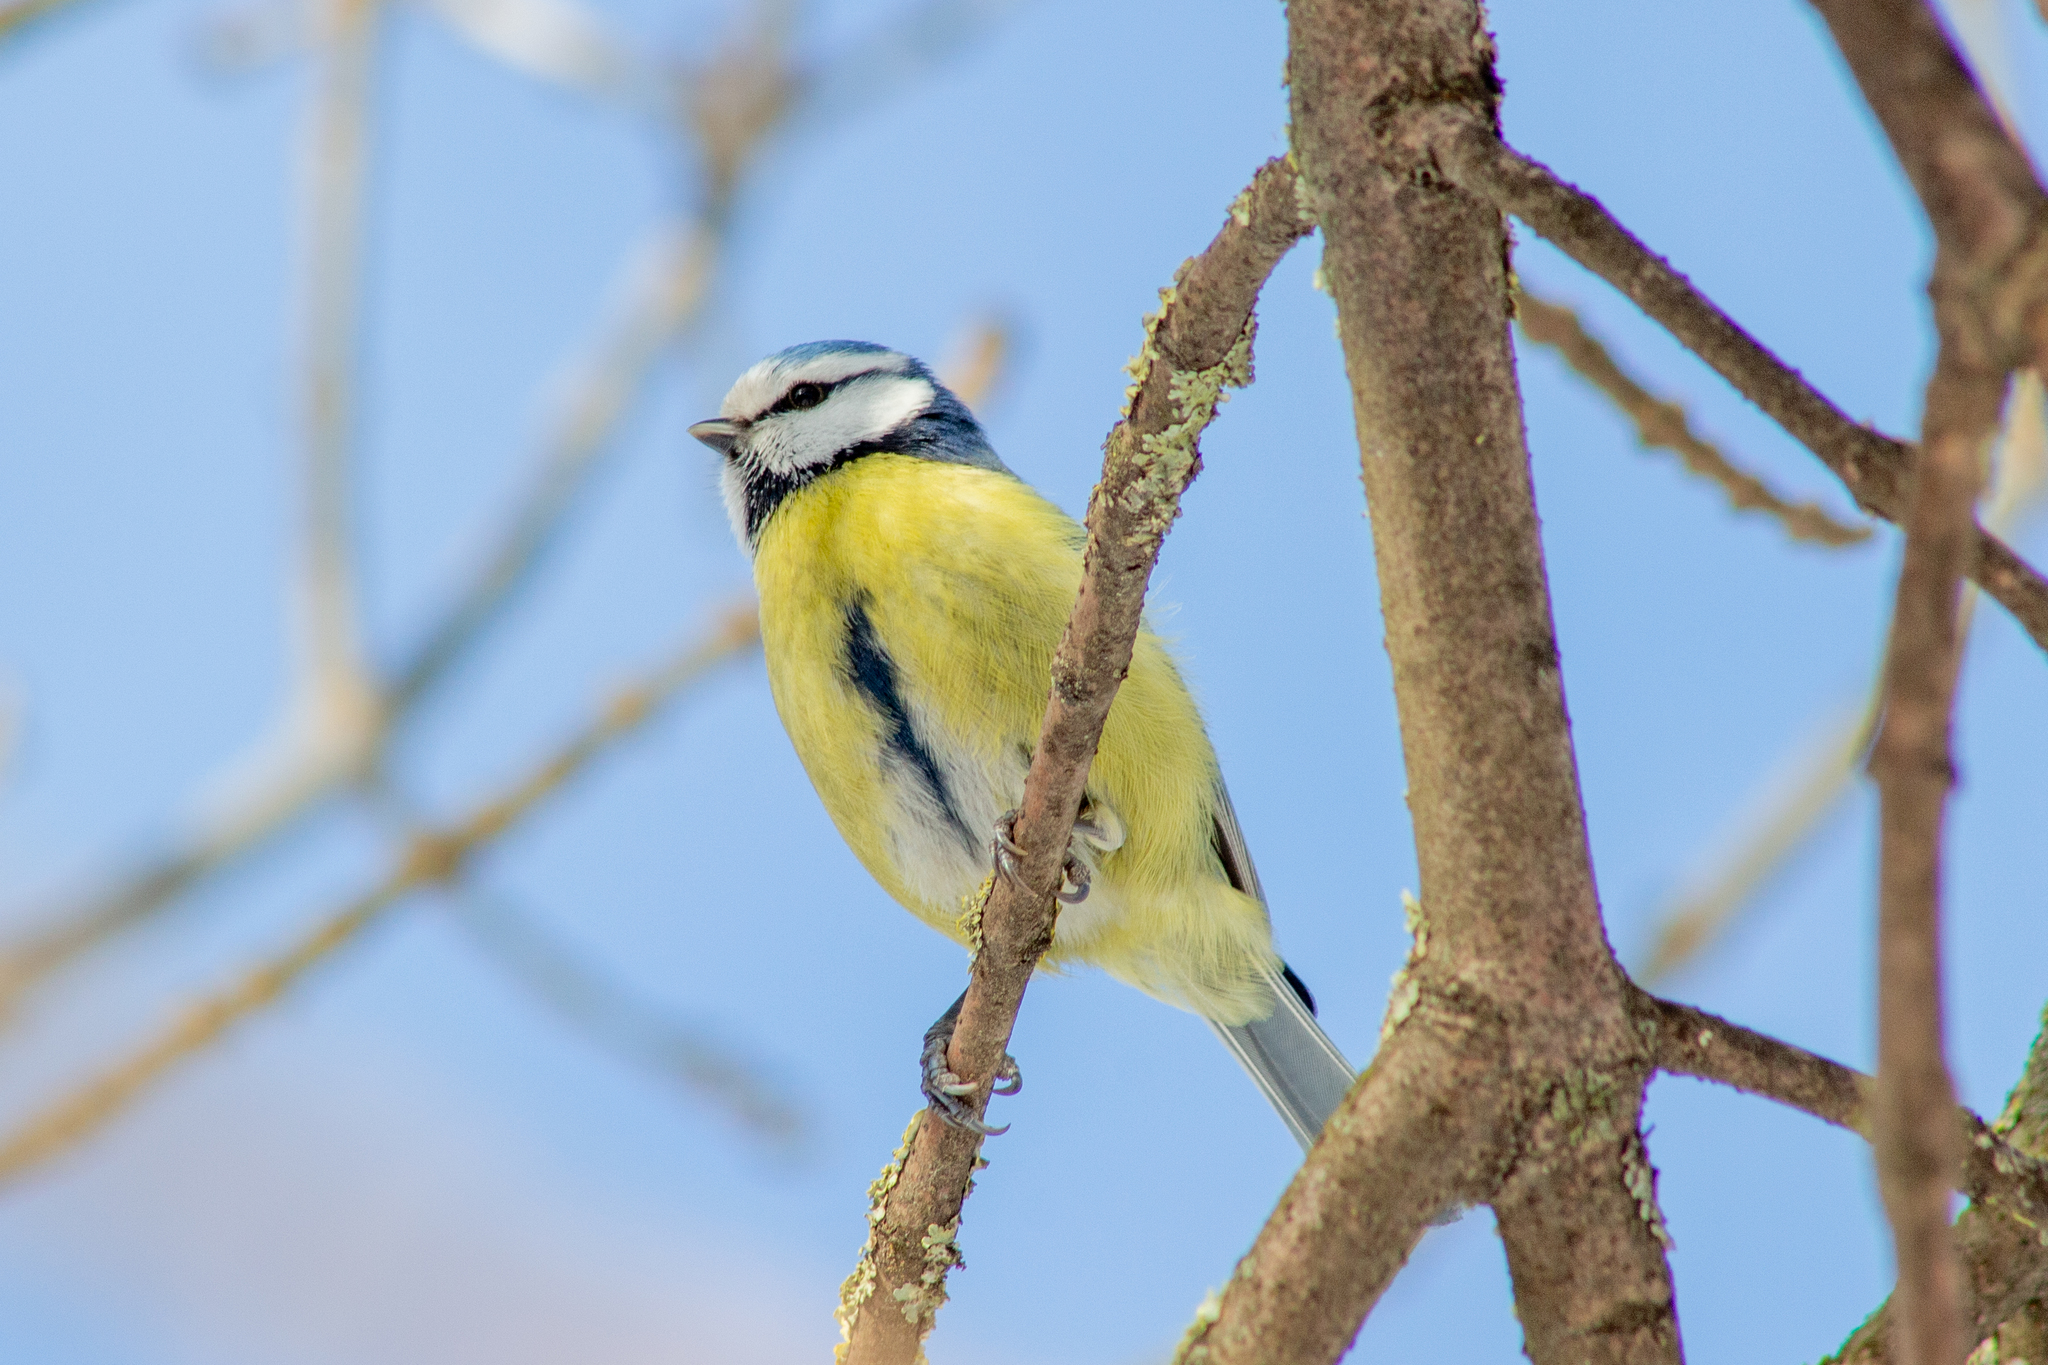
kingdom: Animalia
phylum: Chordata
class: Aves
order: Passeriformes
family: Paridae
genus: Cyanistes
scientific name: Cyanistes caeruleus
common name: Eurasian blue tit
